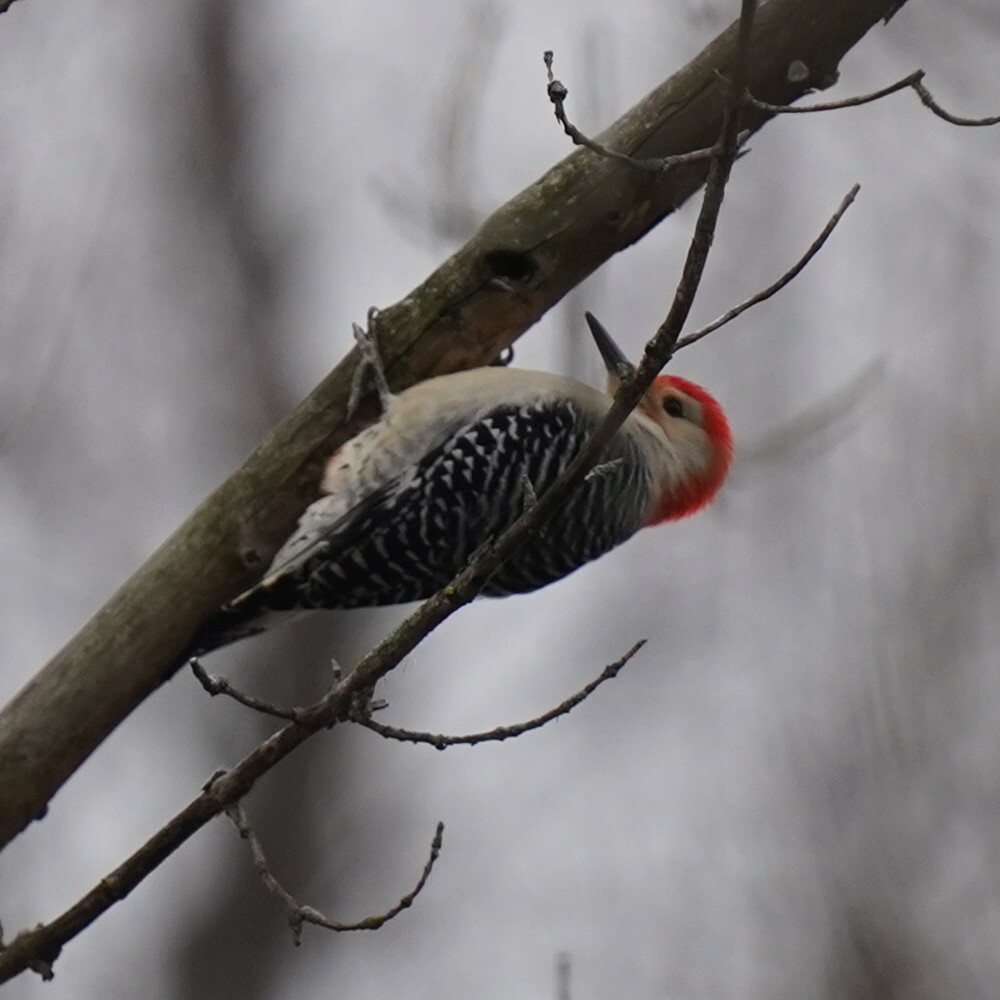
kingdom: Animalia
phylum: Chordata
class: Aves
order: Piciformes
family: Picidae
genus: Melanerpes
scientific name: Melanerpes carolinus
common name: Red-bellied woodpecker
